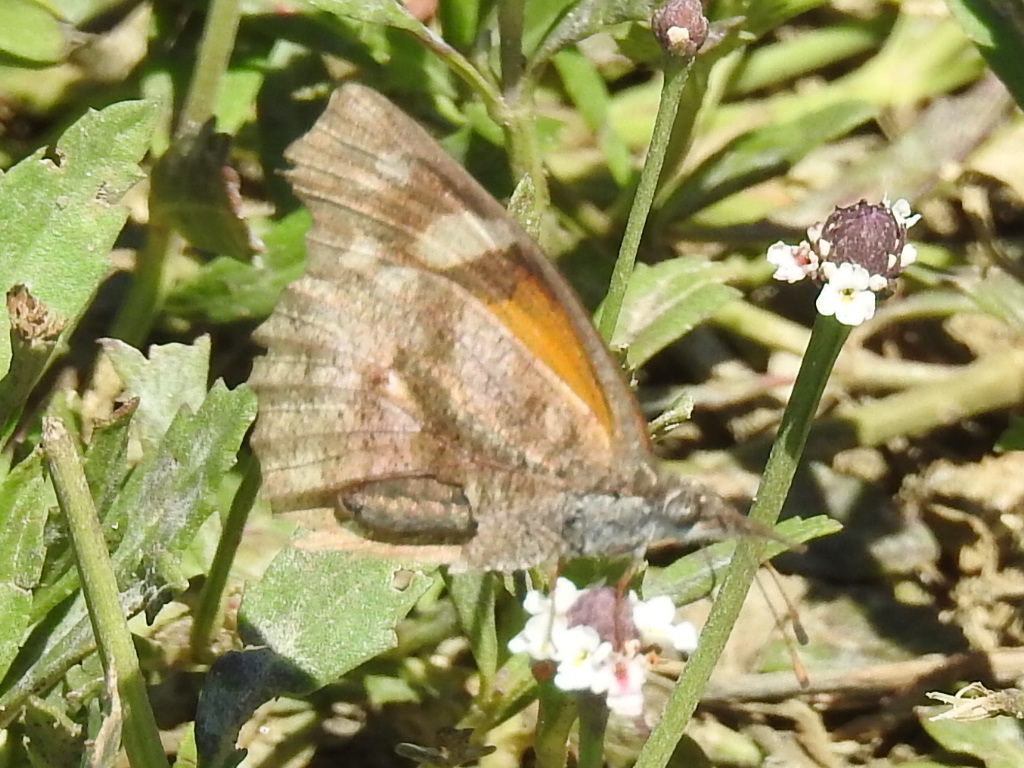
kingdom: Animalia
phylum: Arthropoda
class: Insecta
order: Lepidoptera
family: Nymphalidae
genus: Libytheana
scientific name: Libytheana carinenta
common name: American snout
